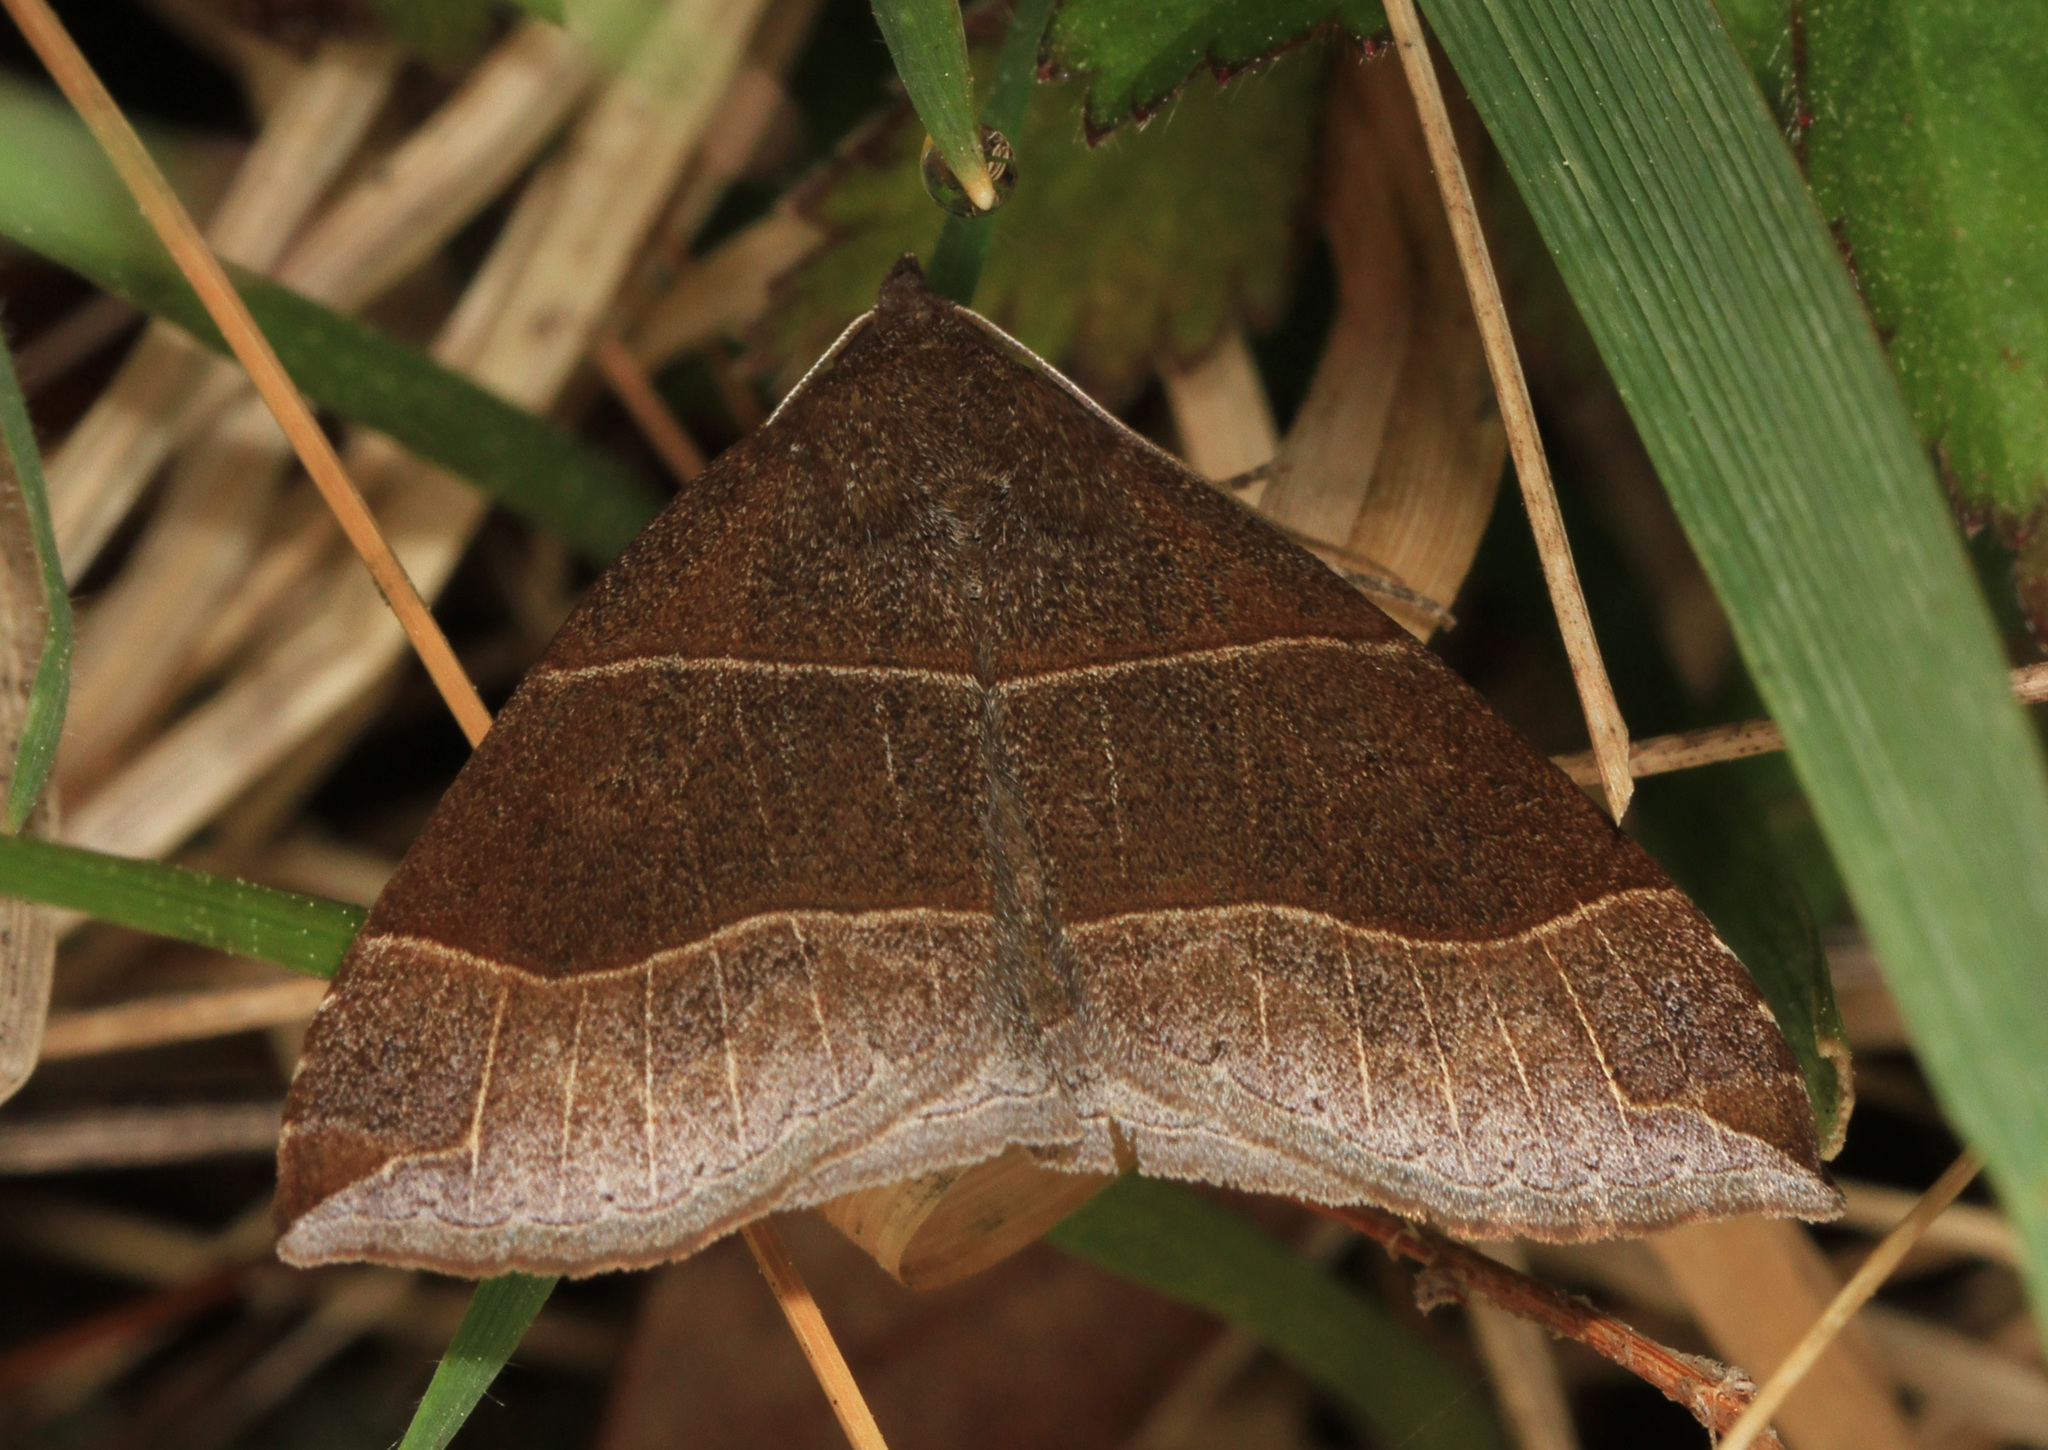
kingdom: Animalia
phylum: Arthropoda
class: Insecta
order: Lepidoptera
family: Erebidae
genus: Parallelia
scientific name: Parallelia bistriaris
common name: Maple looper moth
